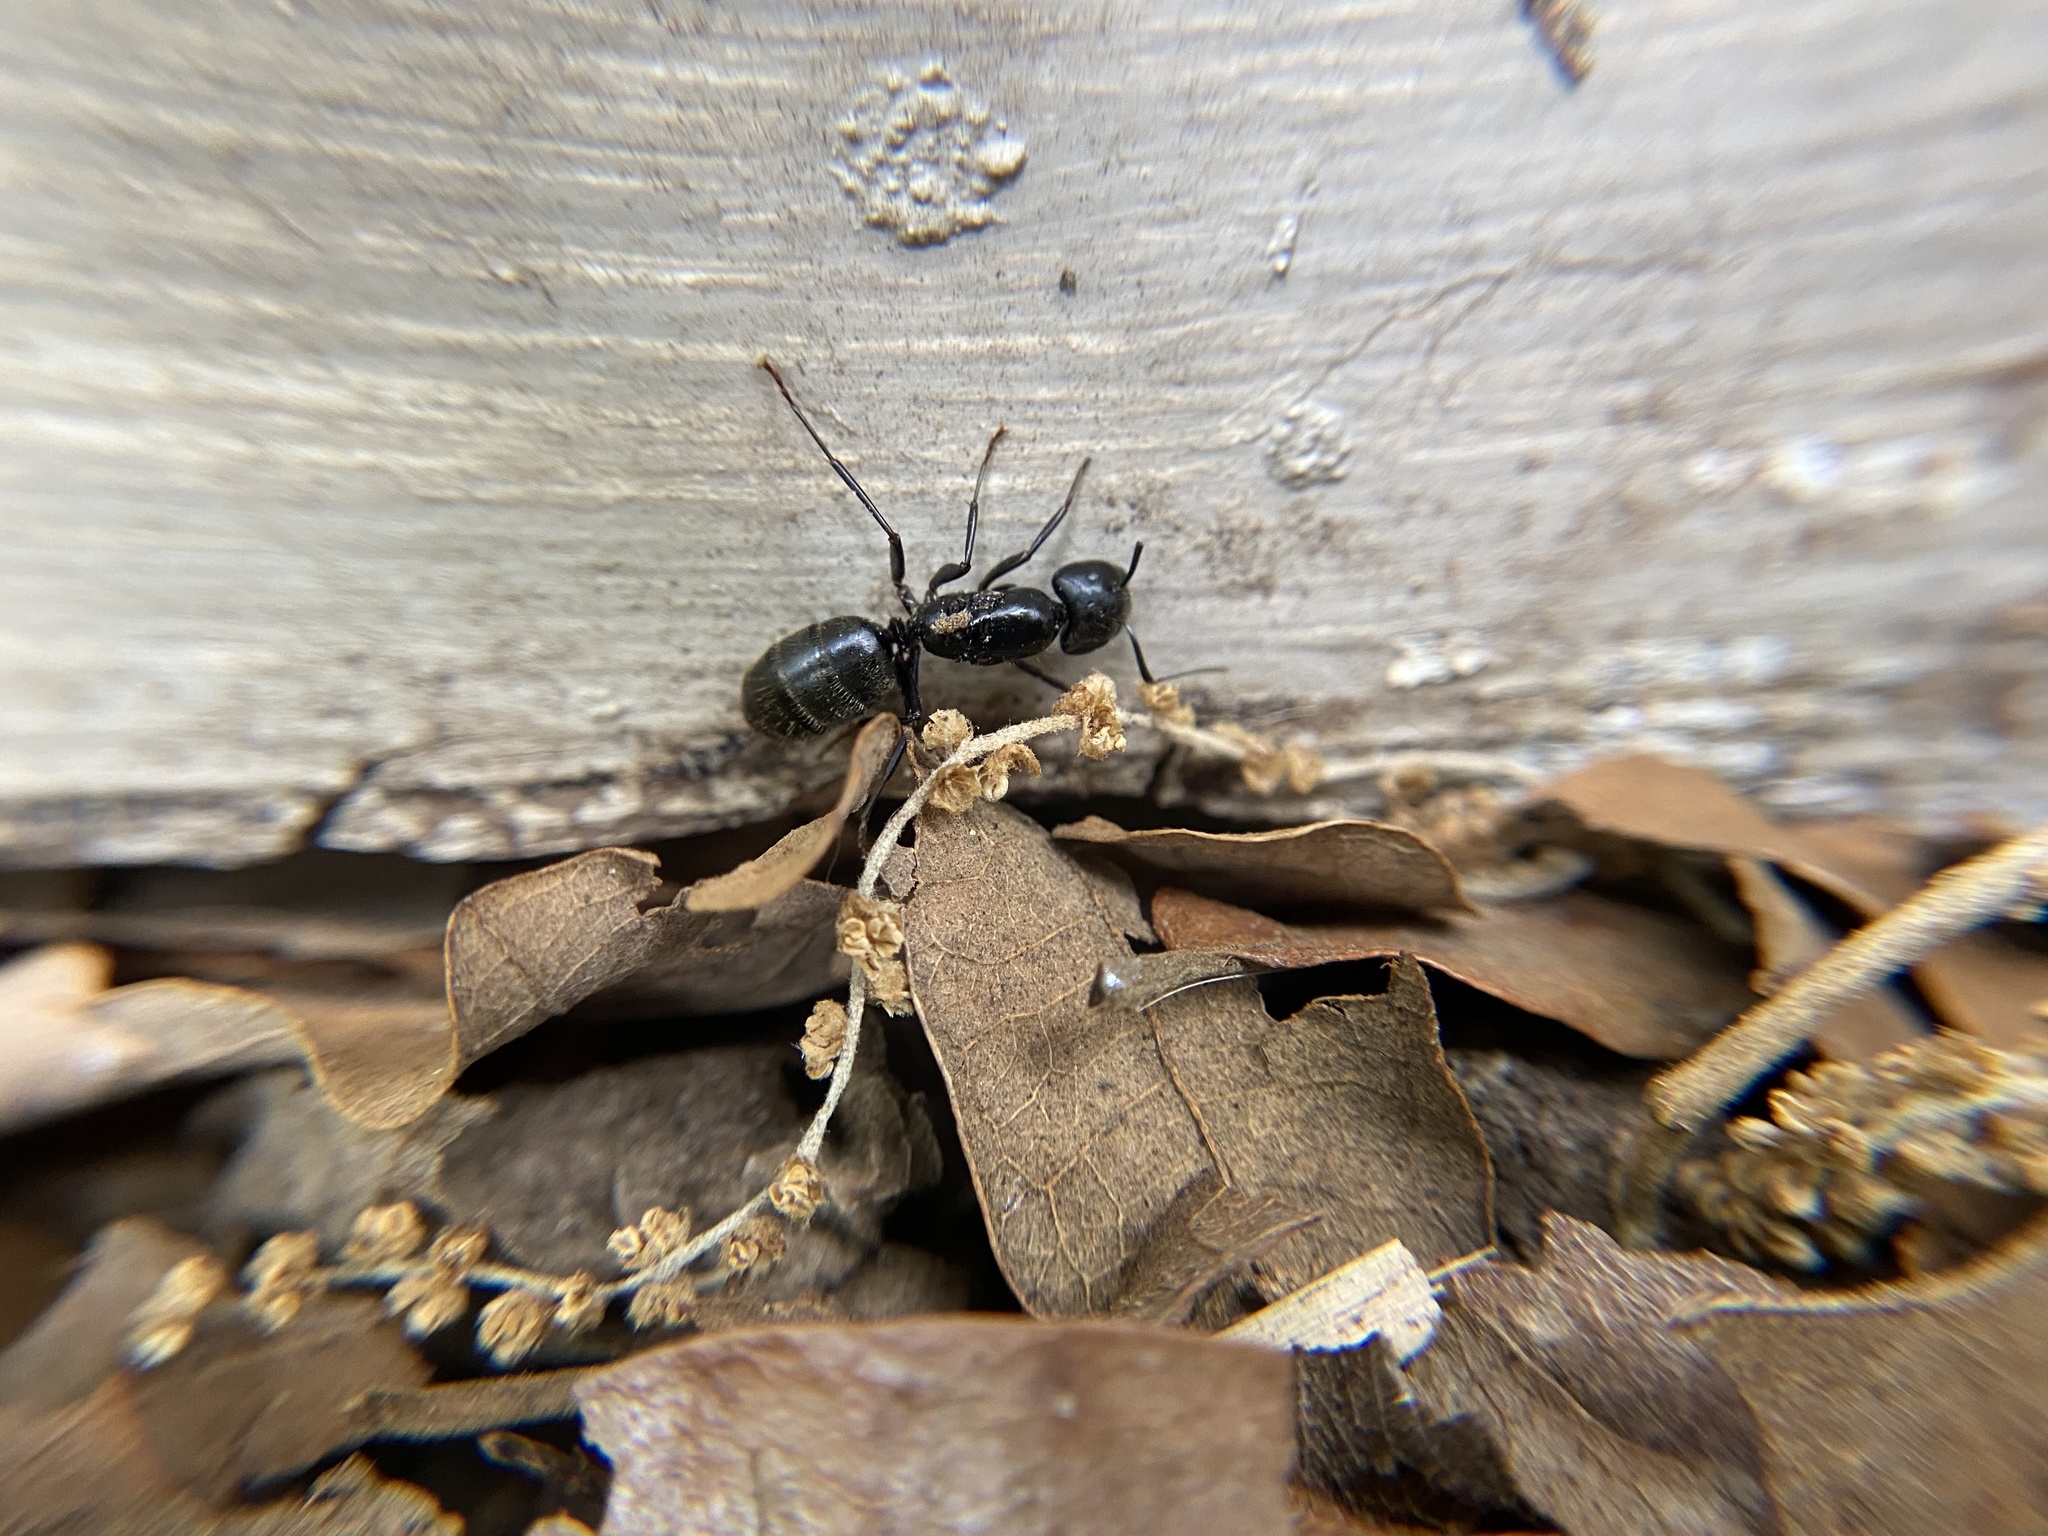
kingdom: Animalia
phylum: Arthropoda
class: Insecta
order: Hymenoptera
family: Formicidae
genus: Camponotus
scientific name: Camponotus pennsylvanicus
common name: Black carpenter ant
